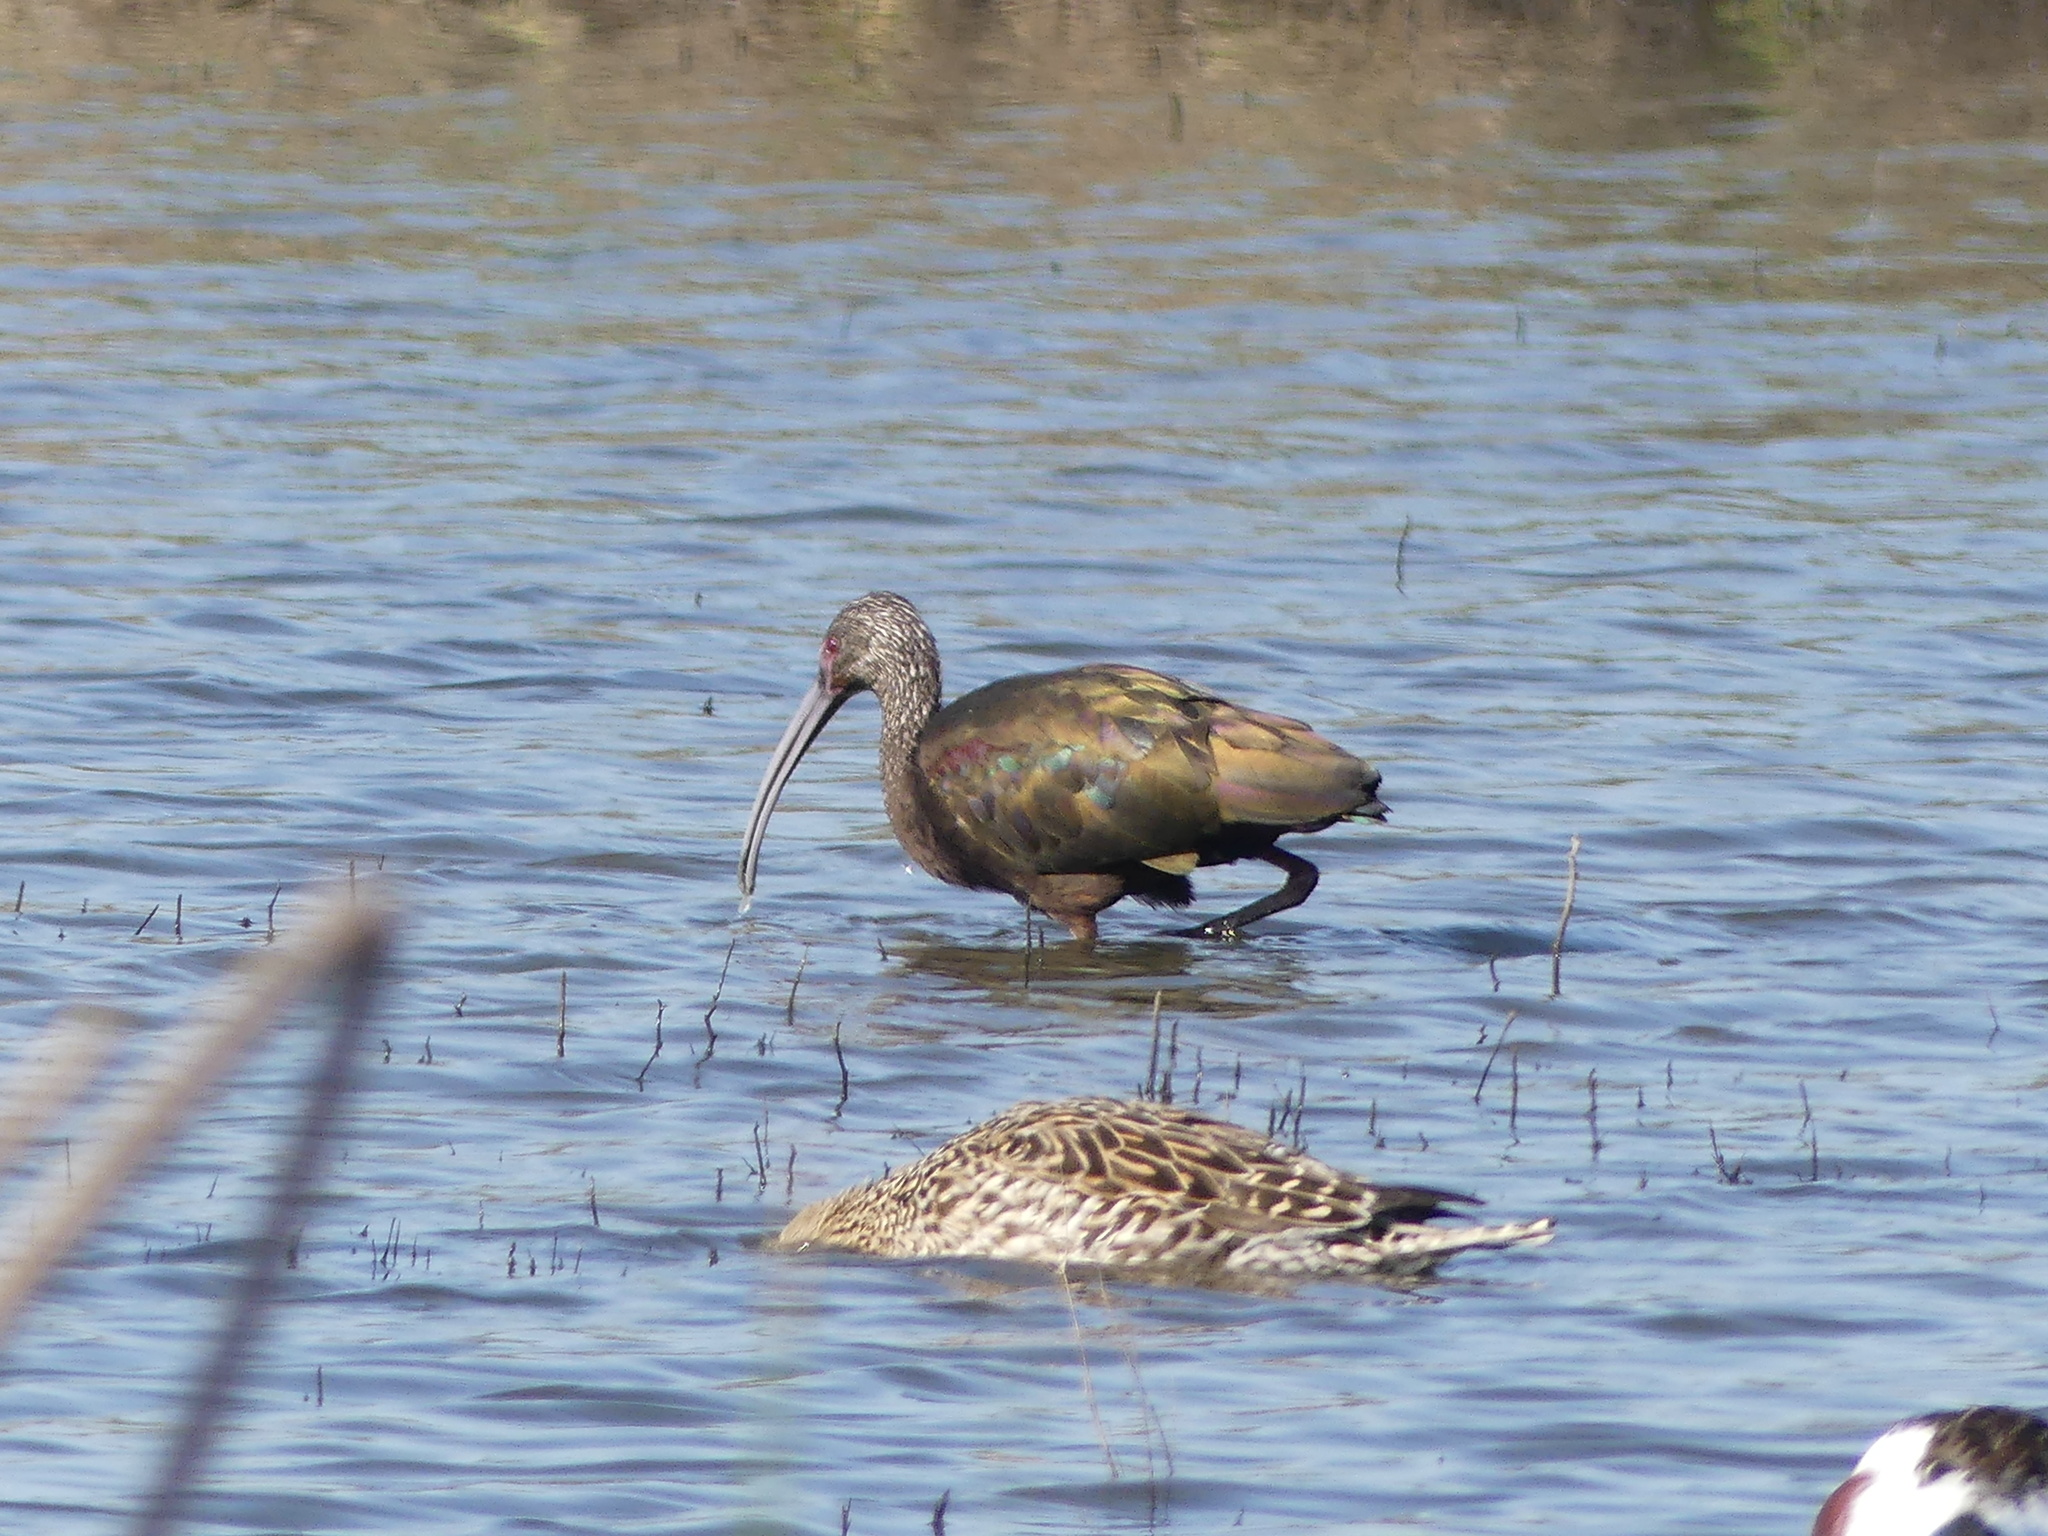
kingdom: Animalia
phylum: Chordata
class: Aves
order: Pelecaniformes
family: Threskiornithidae
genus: Plegadis
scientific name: Plegadis chihi
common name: White-faced ibis
